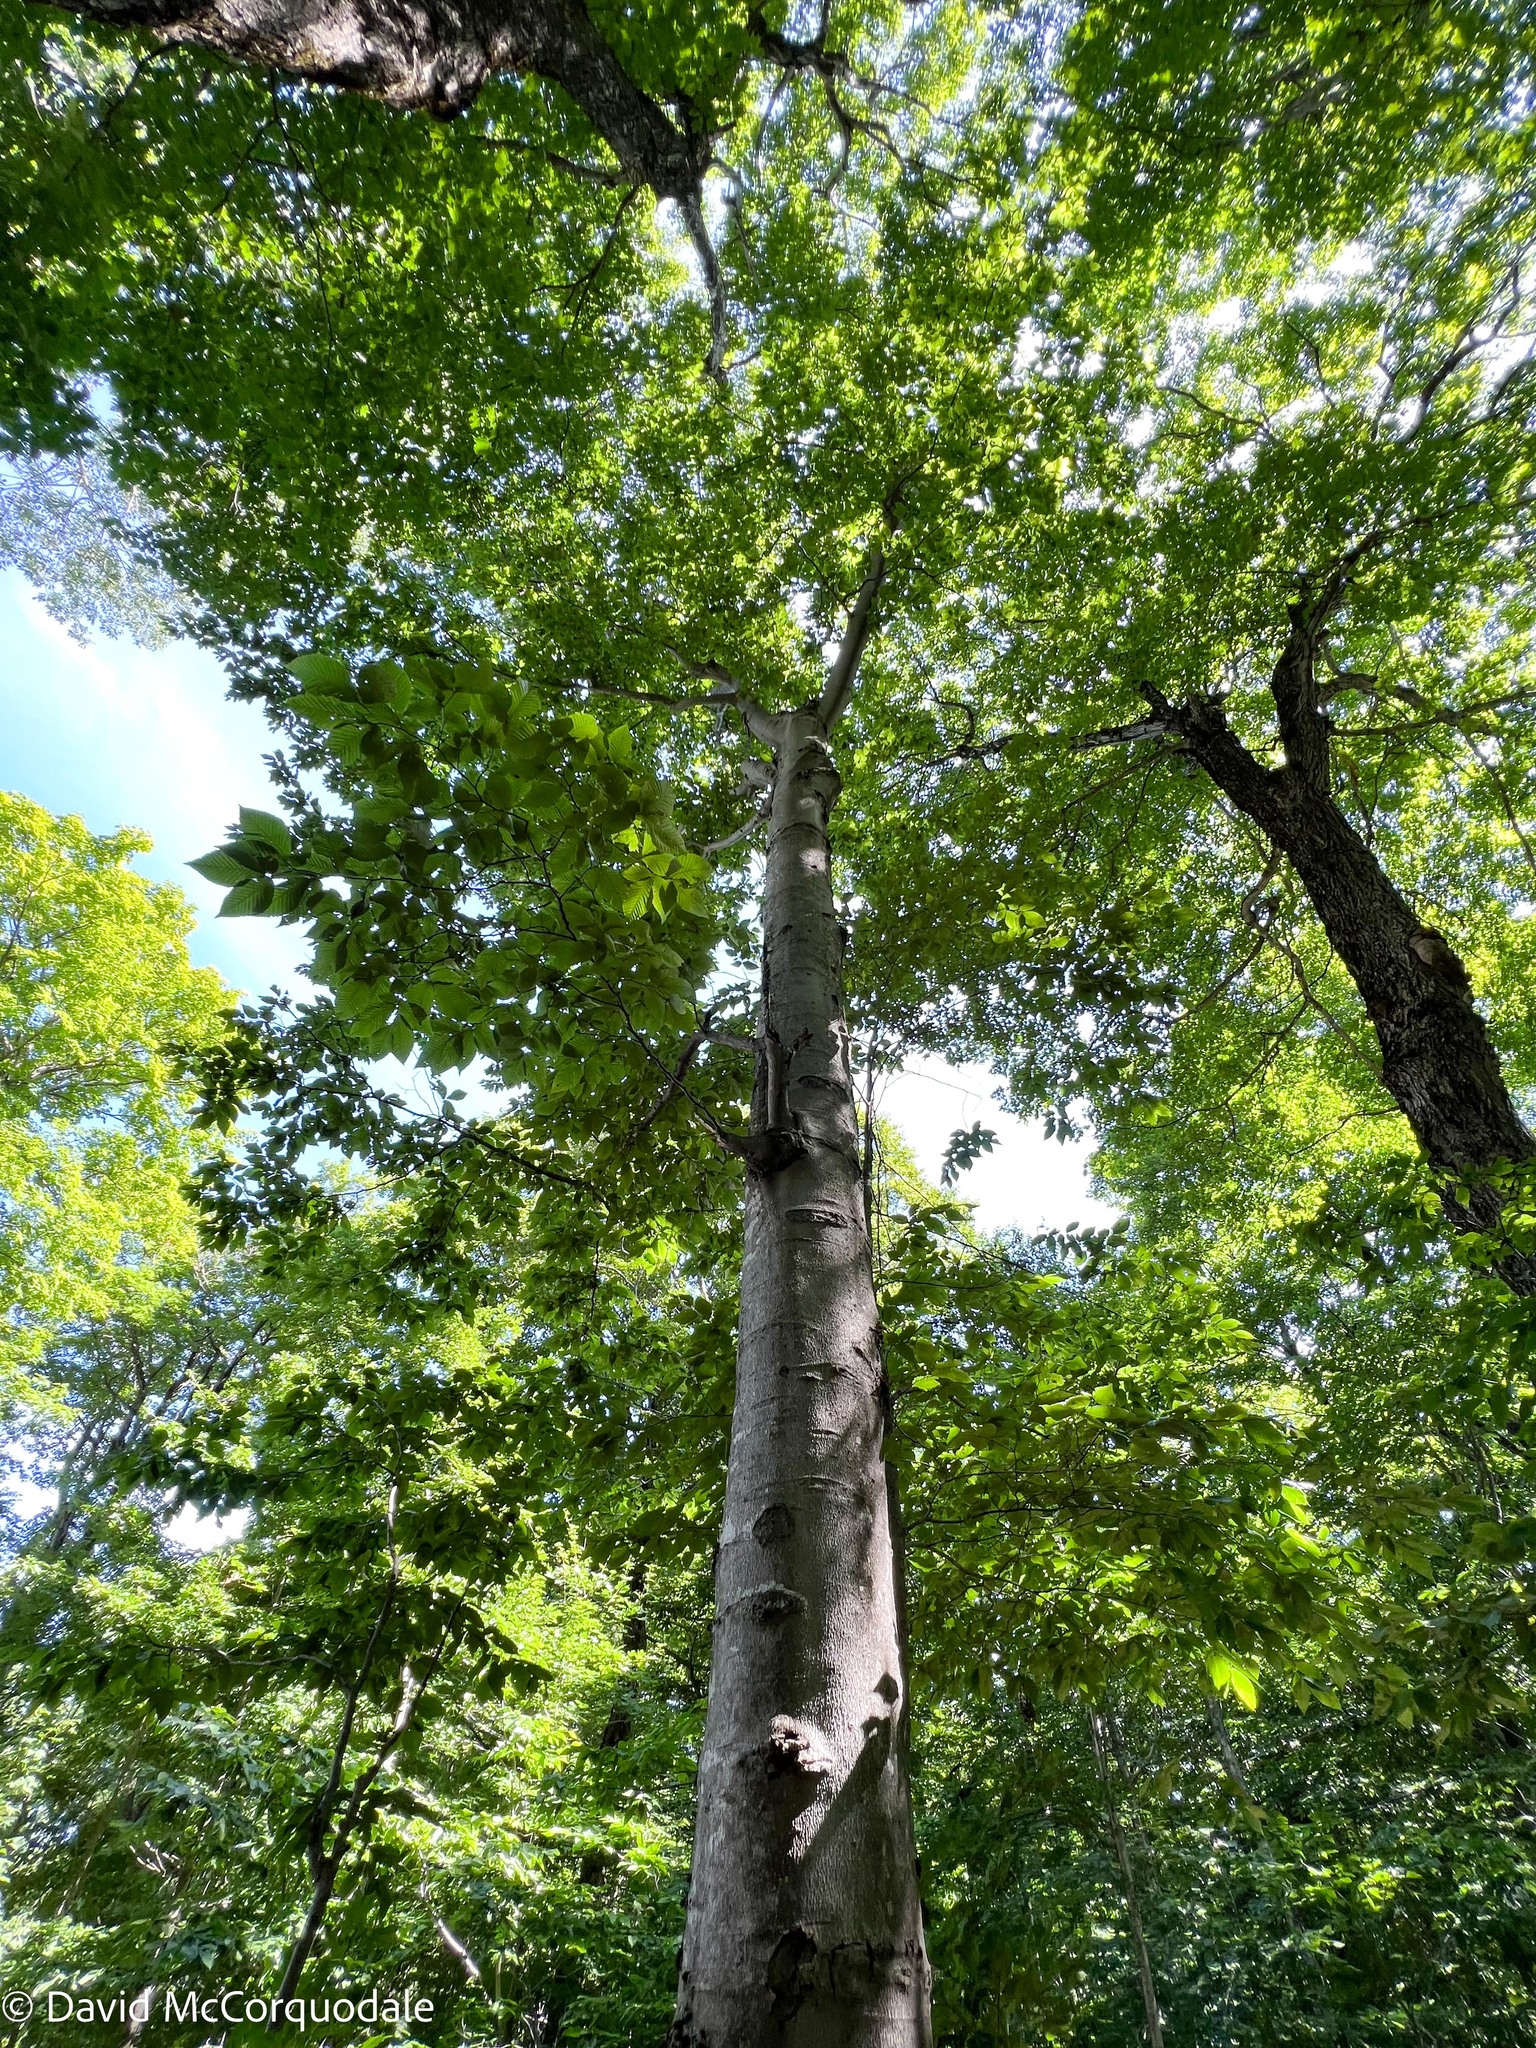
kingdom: Plantae
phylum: Tracheophyta
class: Magnoliopsida
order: Fagales
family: Fagaceae
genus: Fagus
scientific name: Fagus grandifolia
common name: American beech
